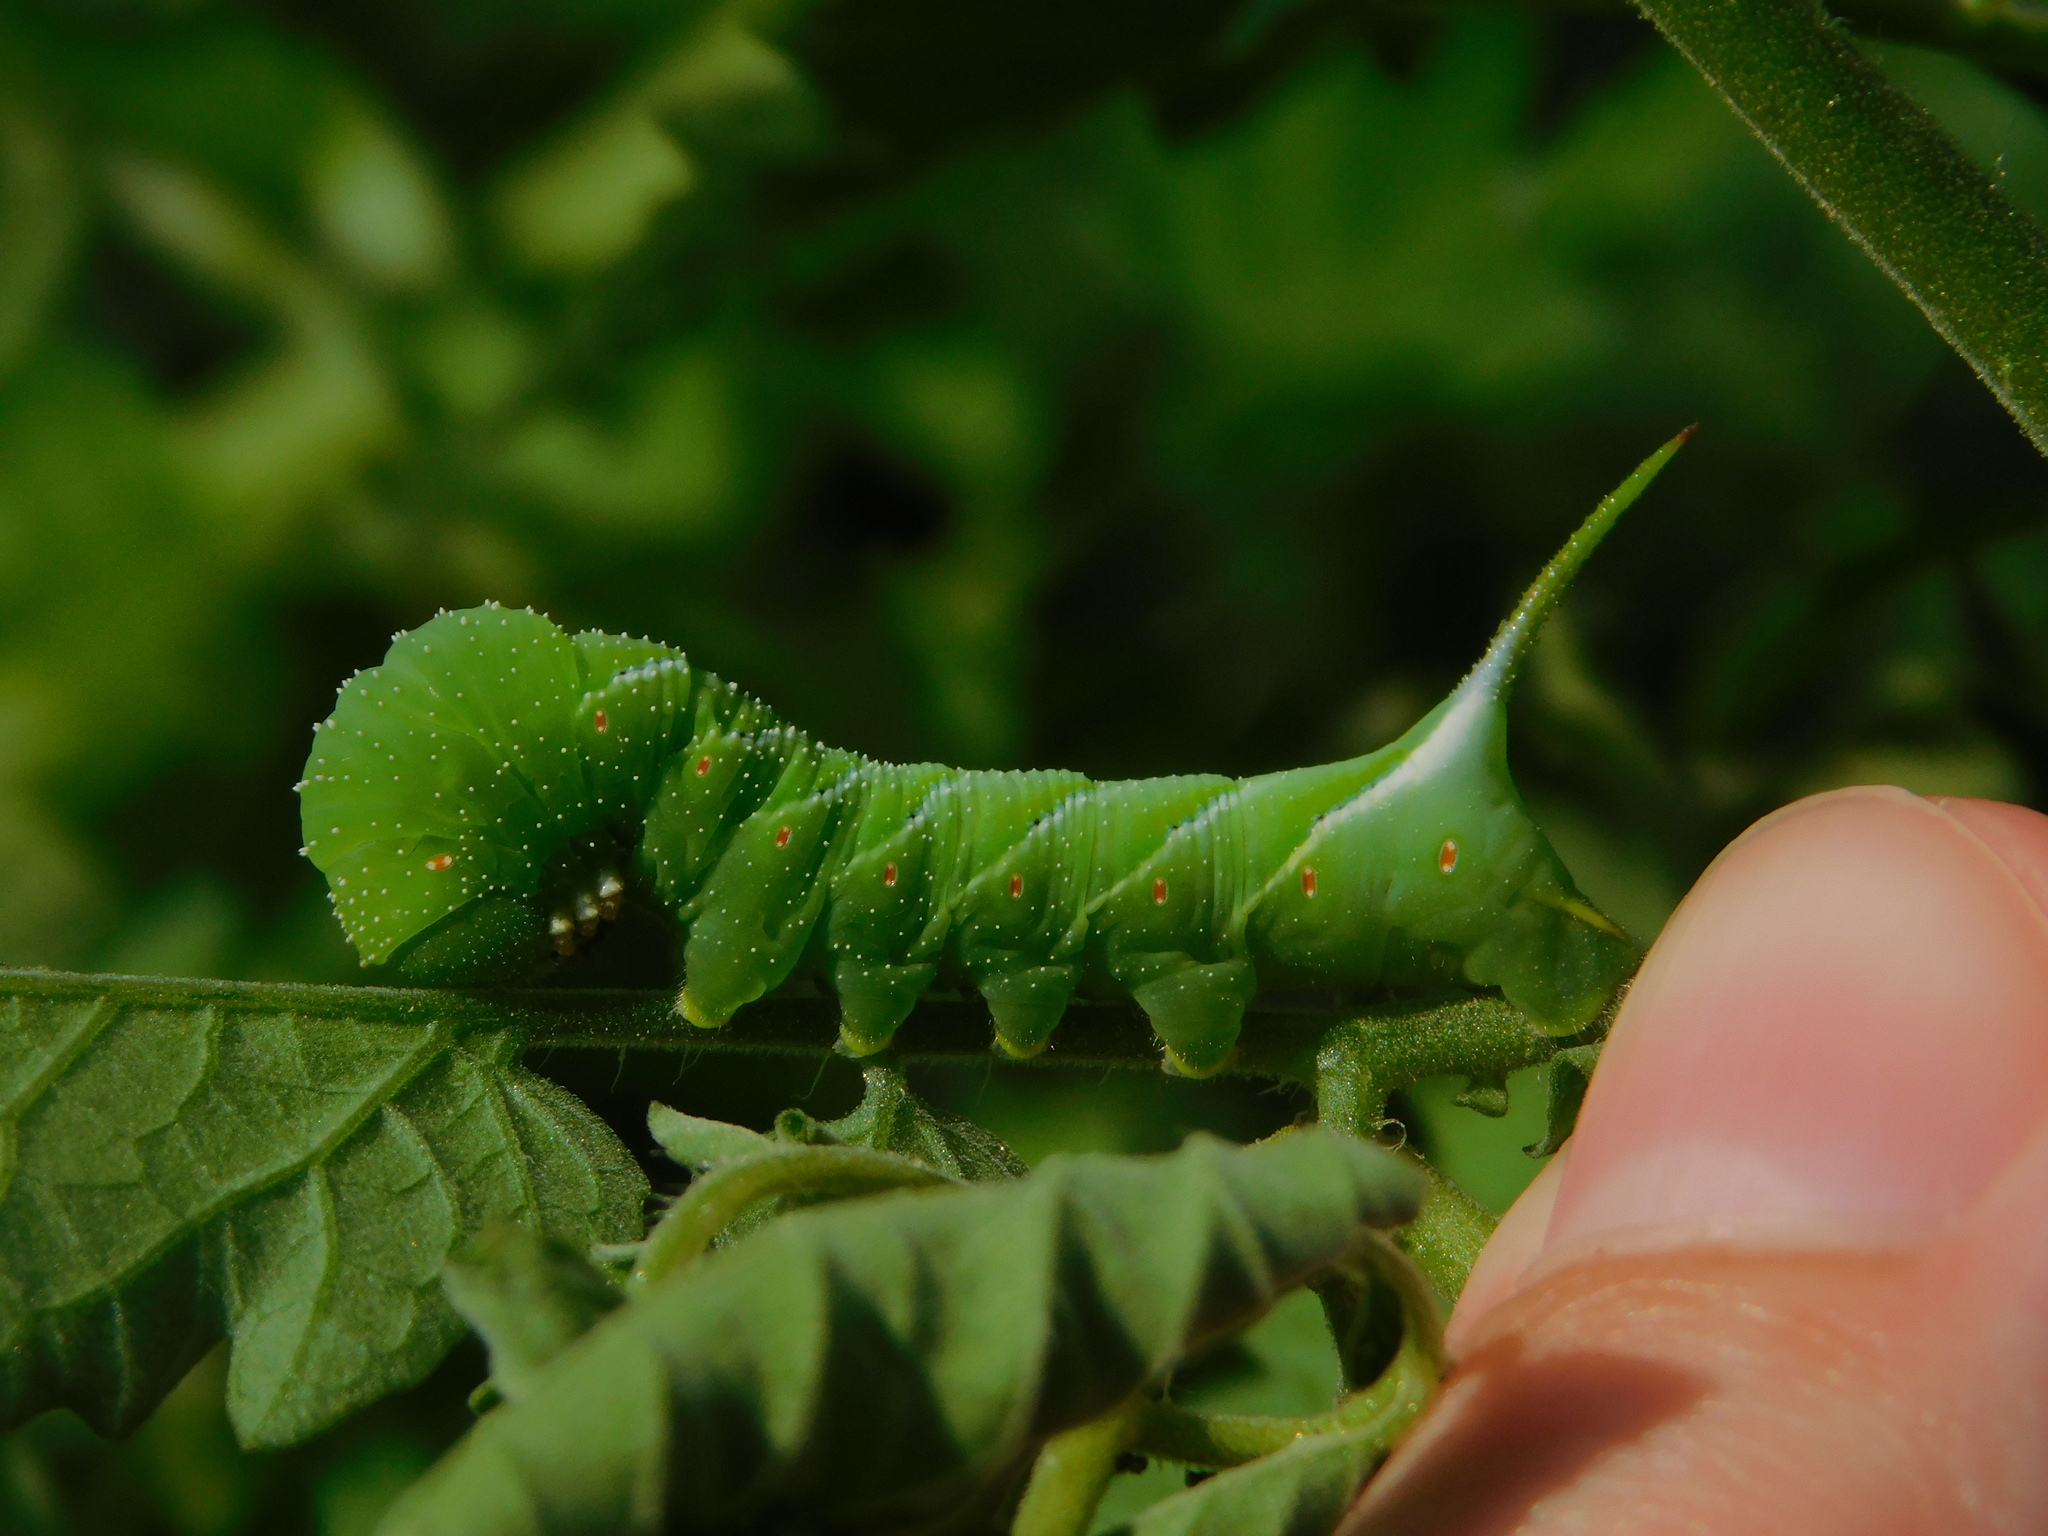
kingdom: Animalia
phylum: Arthropoda
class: Insecta
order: Lepidoptera
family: Sphingidae
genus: Manduca
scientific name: Manduca sexta
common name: Carolina sphinx
